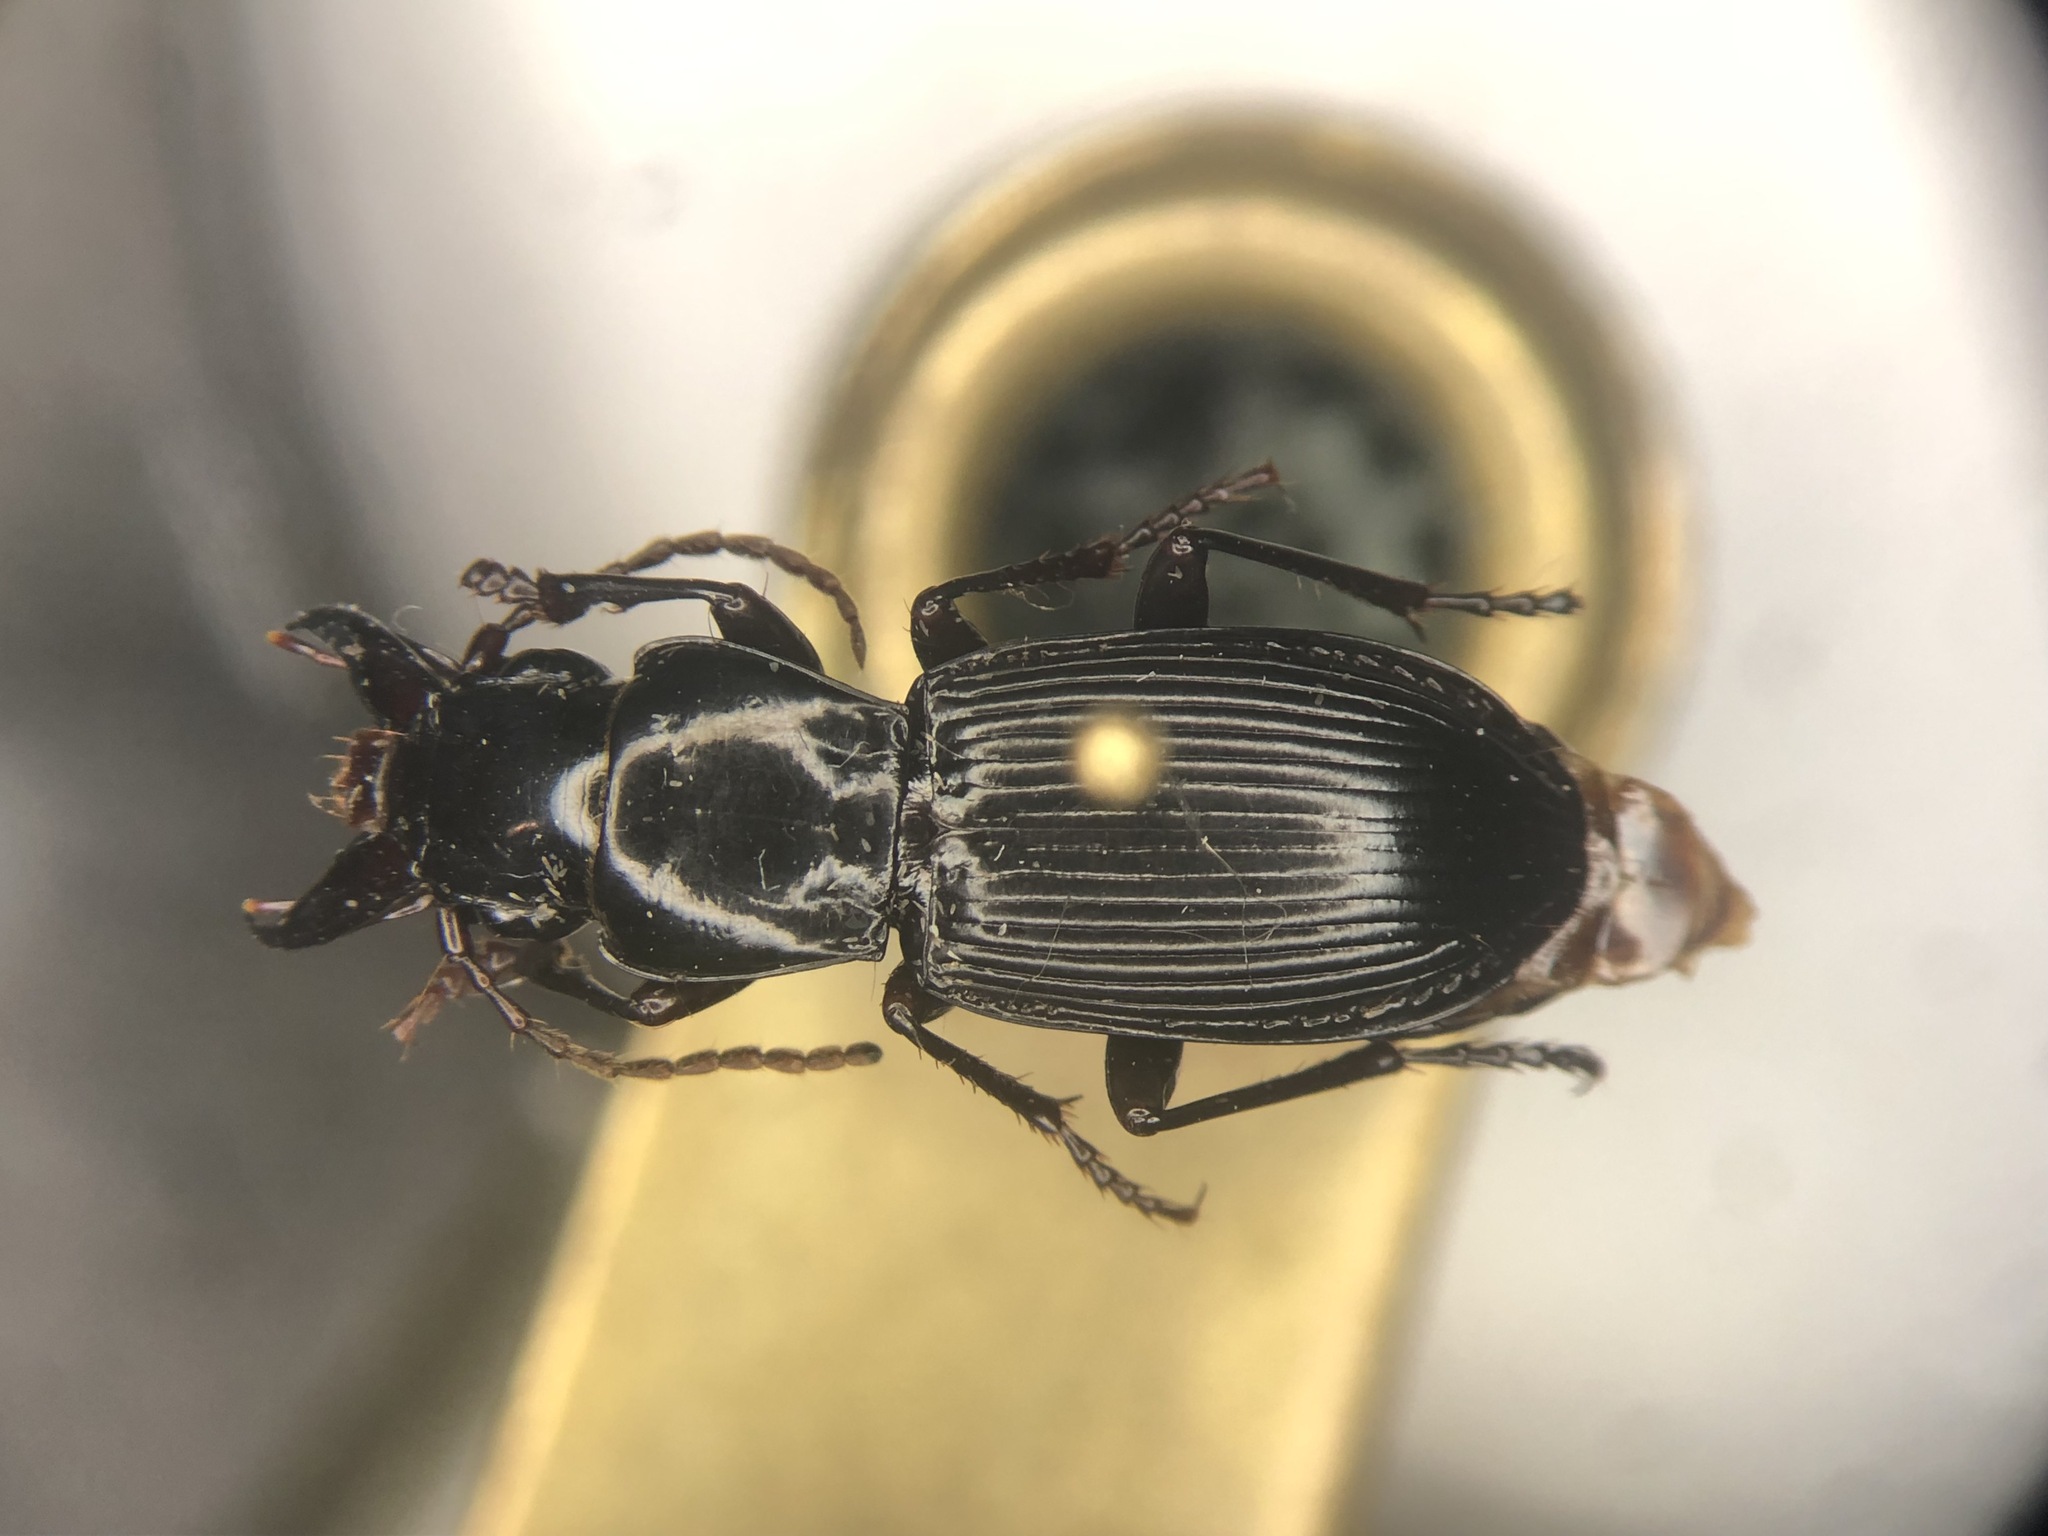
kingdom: Animalia
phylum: Arthropoda
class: Insecta
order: Coleoptera
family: Carabidae
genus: Pterostichus
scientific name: Pterostichus rostratus
